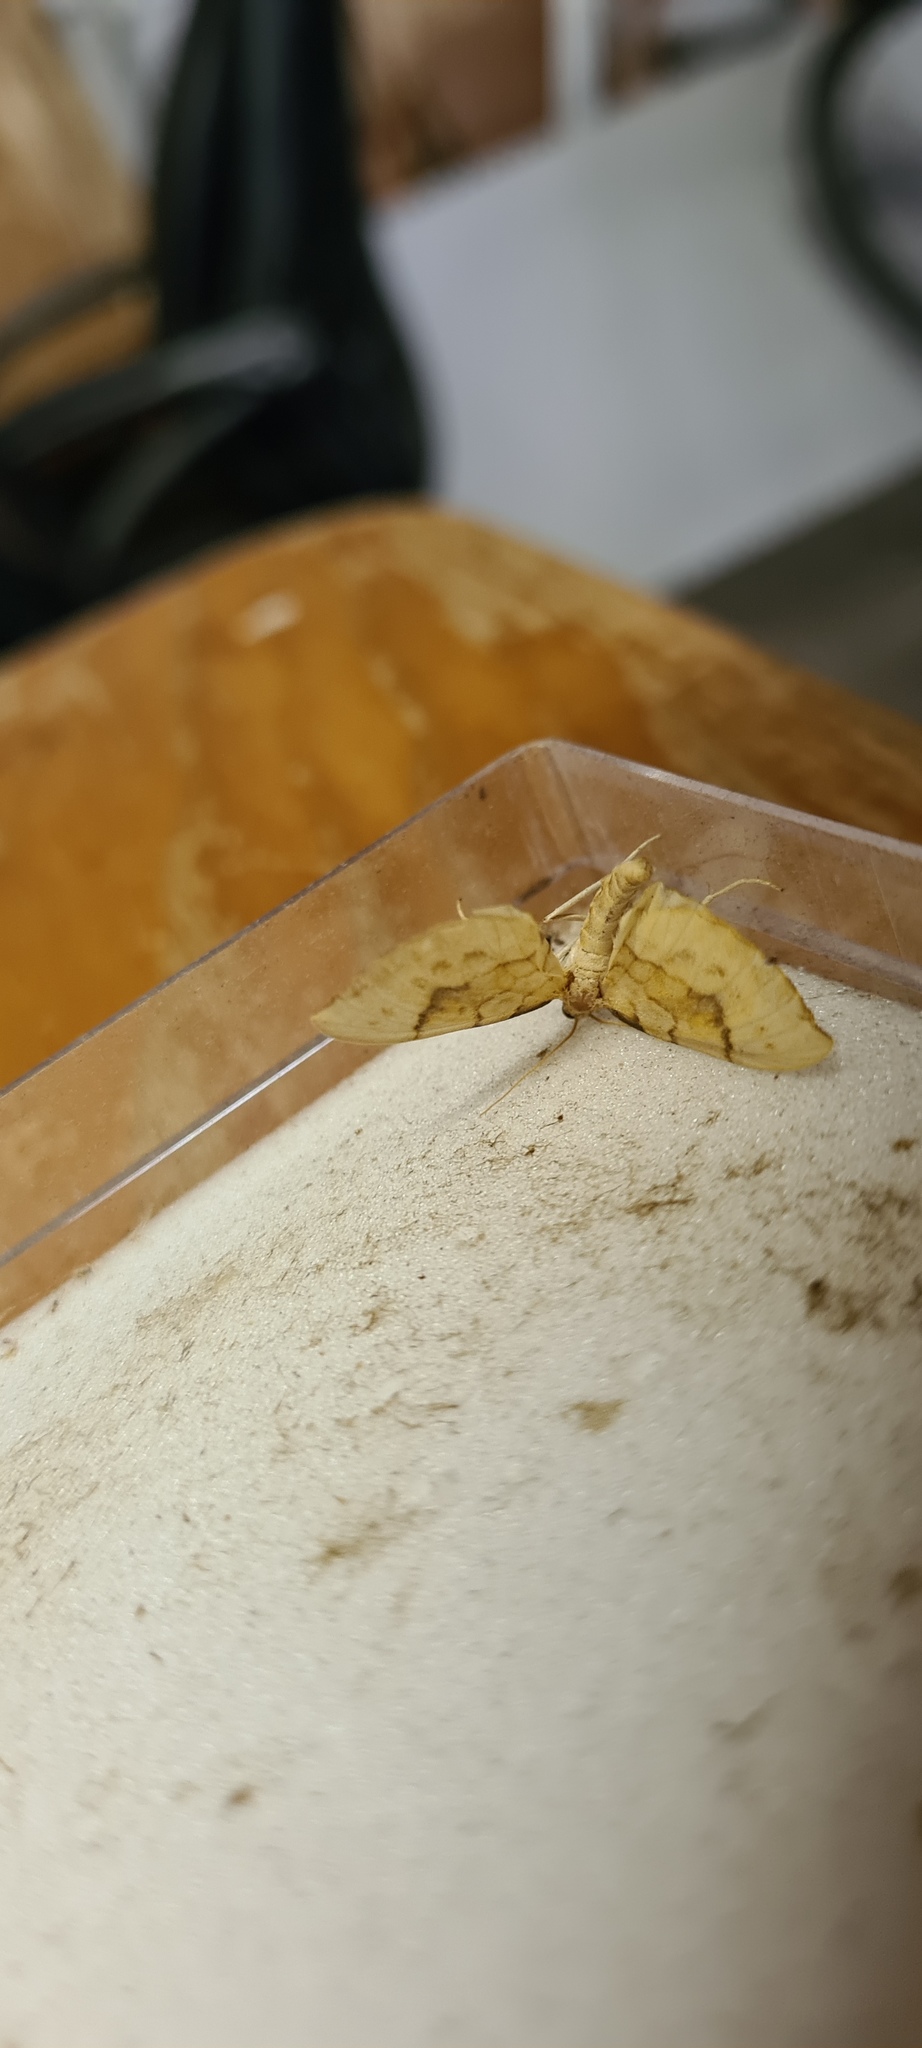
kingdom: Animalia
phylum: Arthropoda
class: Insecta
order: Lepidoptera
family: Geometridae
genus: Eulithis
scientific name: Eulithis pyraliata
